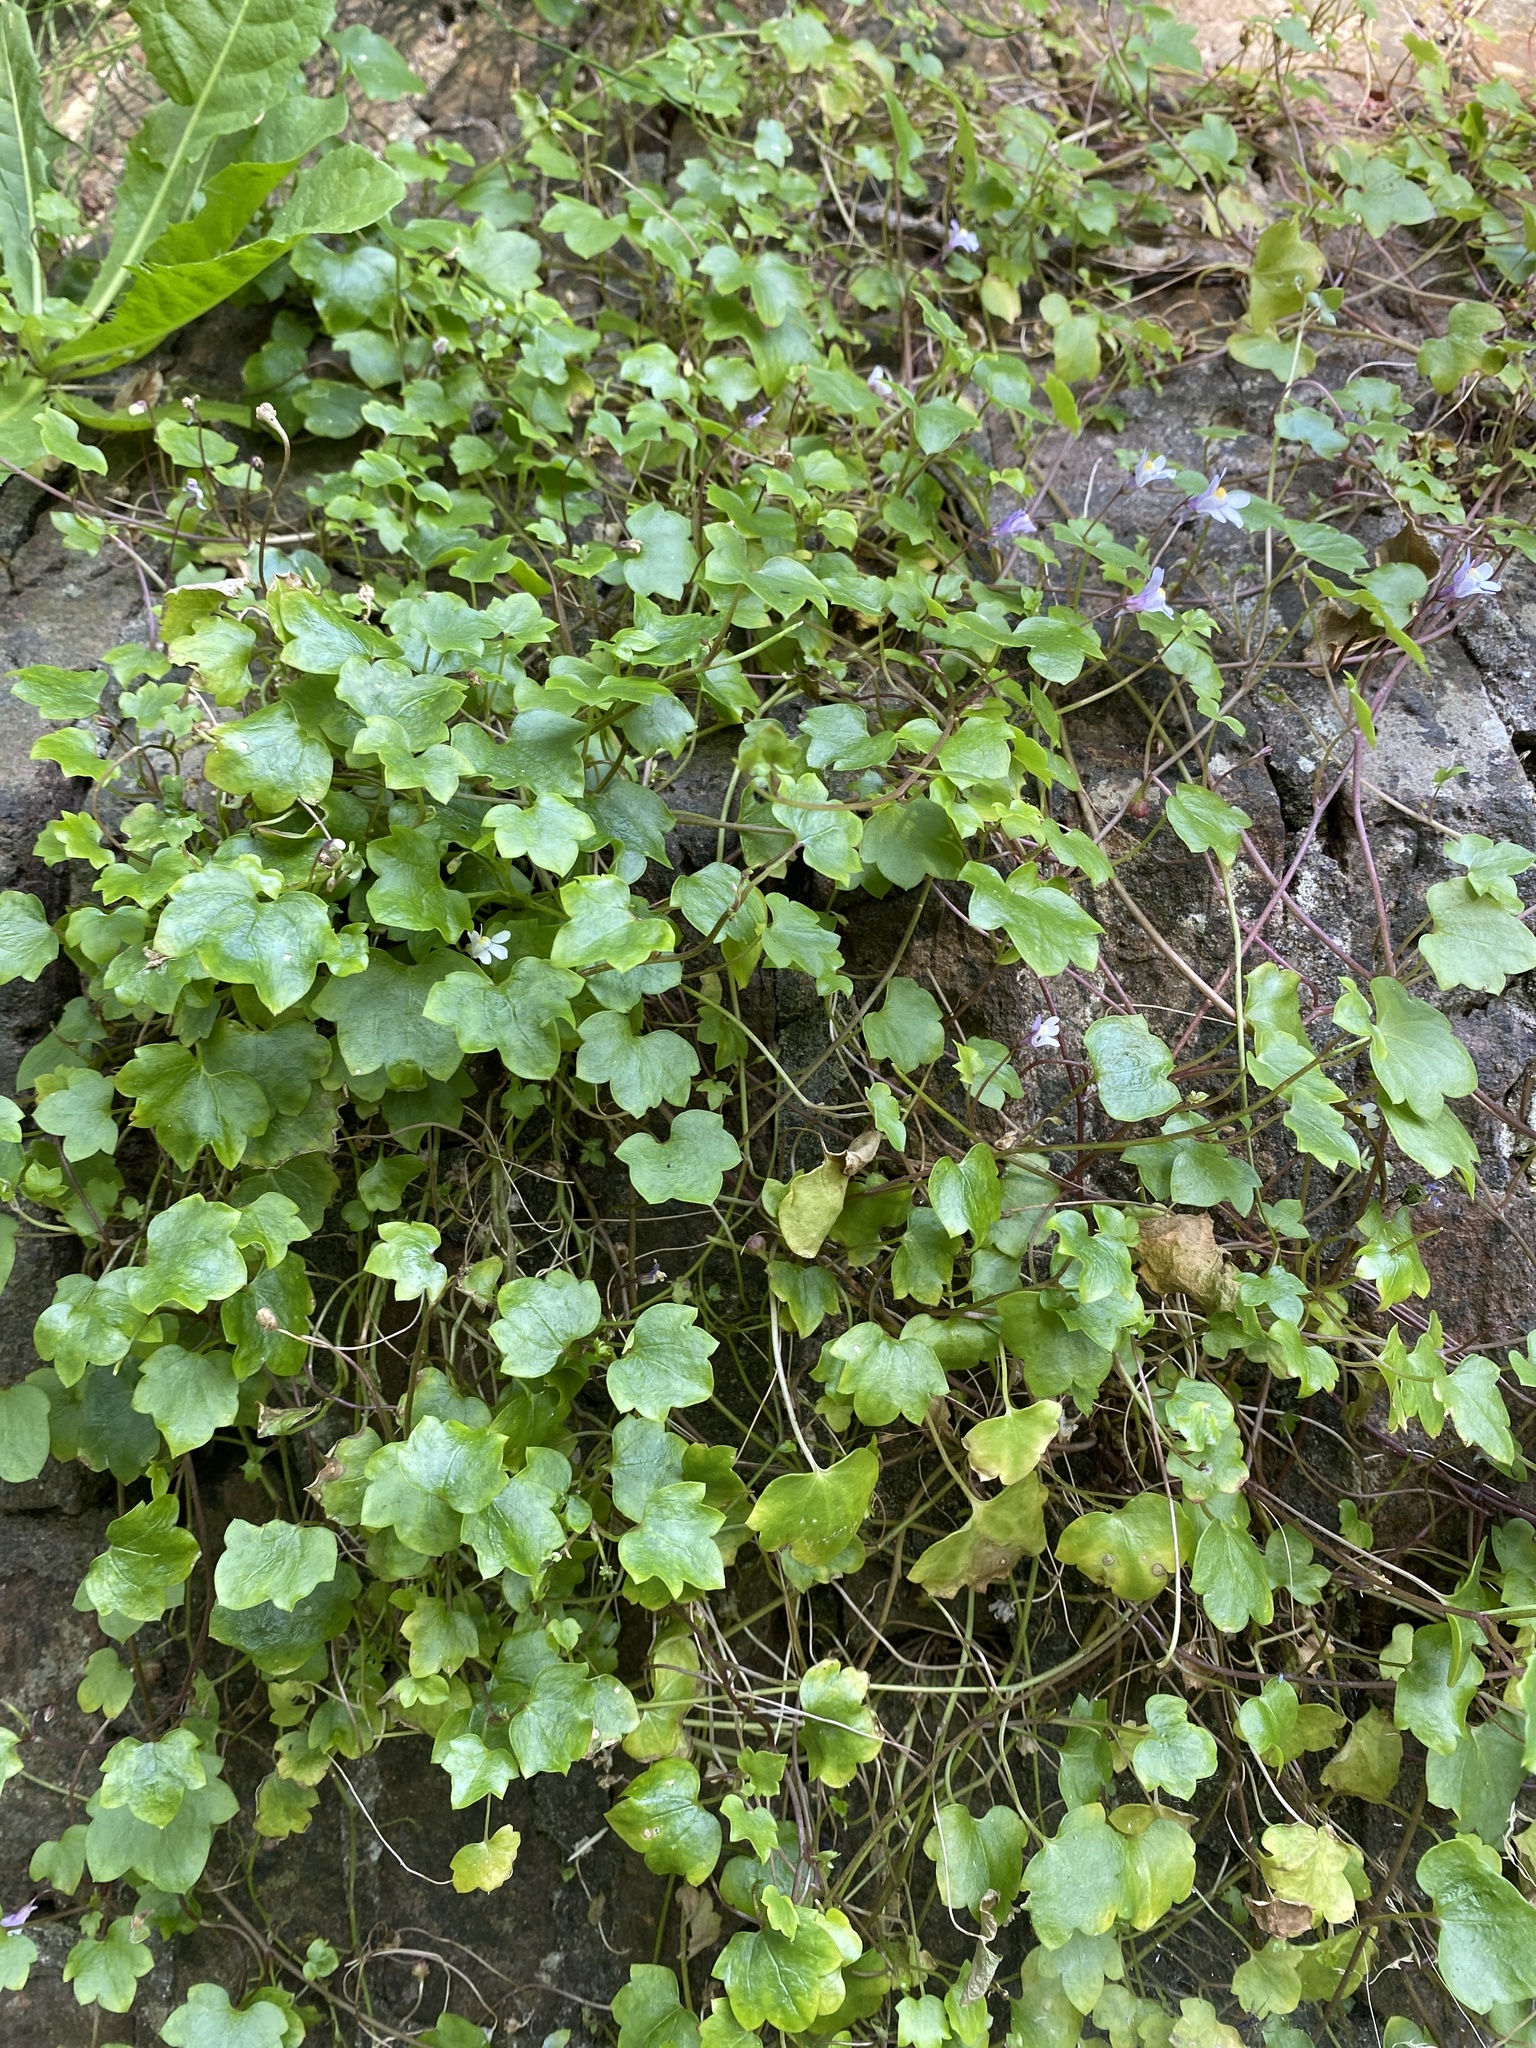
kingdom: Plantae
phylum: Tracheophyta
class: Magnoliopsida
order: Lamiales
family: Plantaginaceae
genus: Cymbalaria
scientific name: Cymbalaria muralis
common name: Ivy-leaved toadflax
